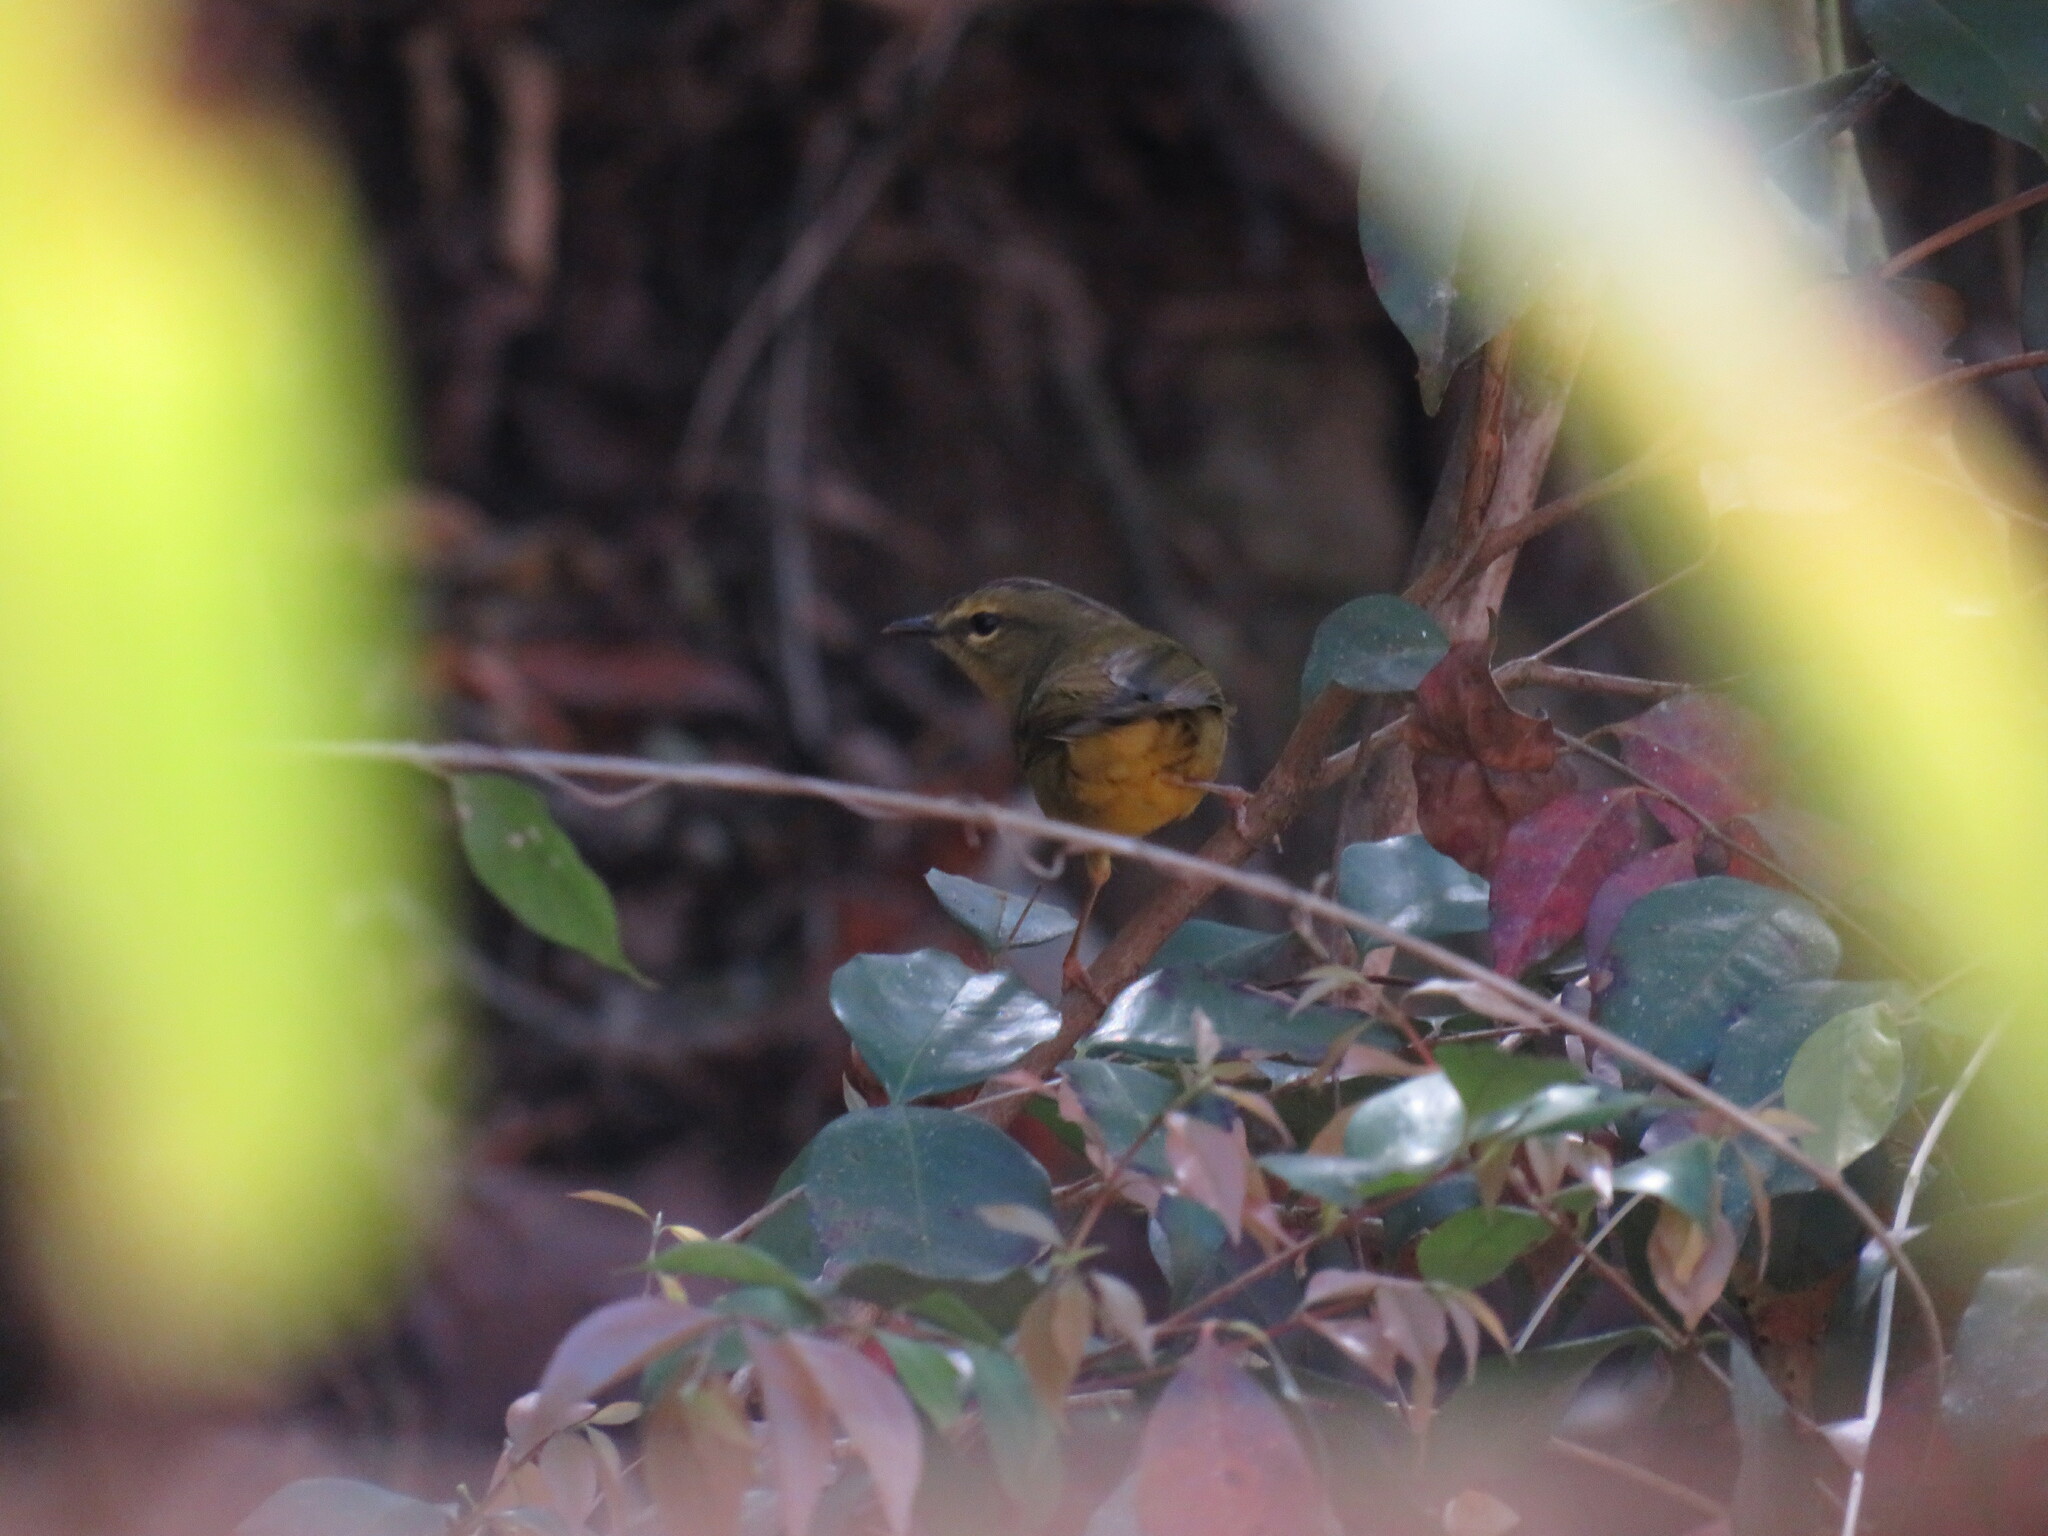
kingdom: Animalia
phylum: Chordata
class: Aves
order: Passeriformes
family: Parulidae
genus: Myiothlypis
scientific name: Myiothlypis bivittata
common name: Two-banded warbler
